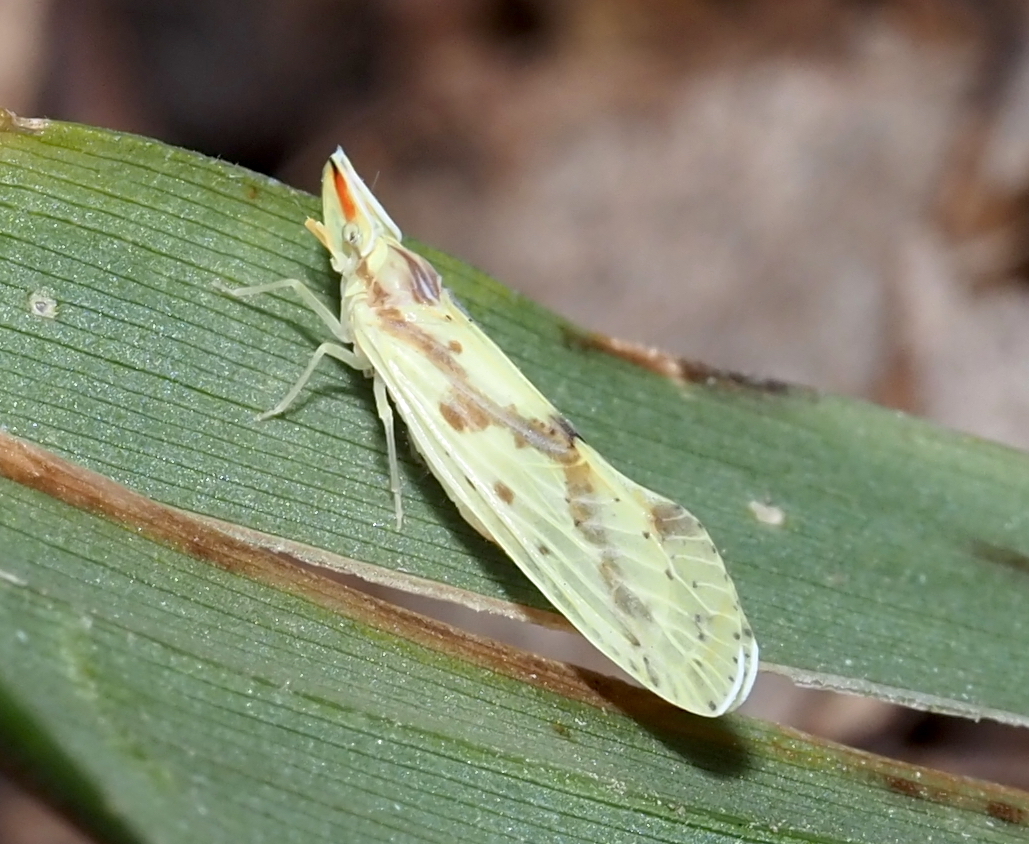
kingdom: Animalia
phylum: Arthropoda
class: Insecta
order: Hemiptera
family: Derbidae
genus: Otiocerus
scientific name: Otiocerus wolfii
